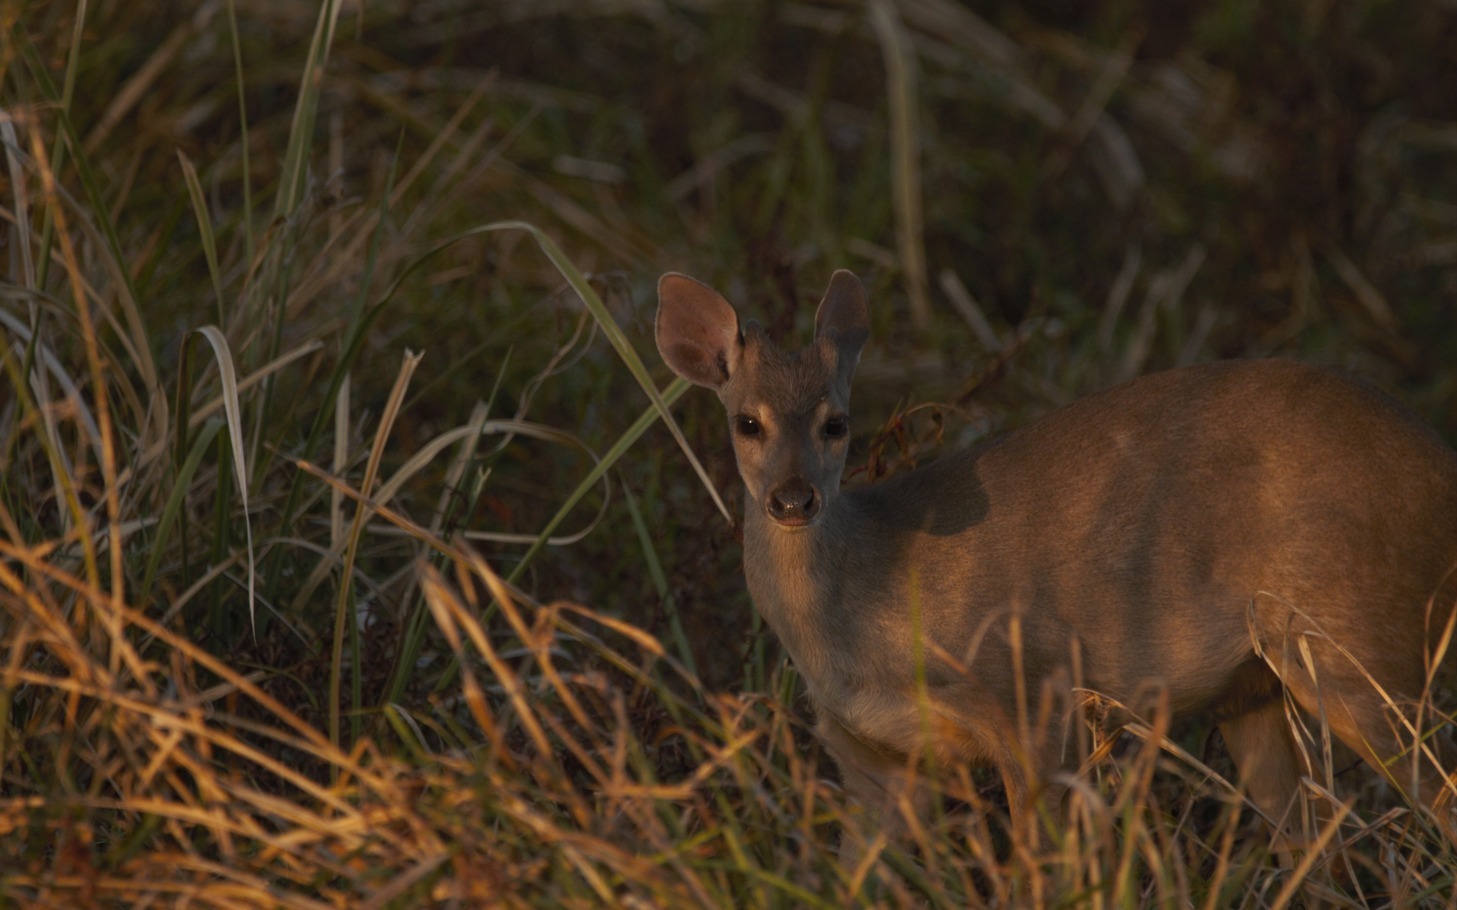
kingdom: Animalia
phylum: Chordata
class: Mammalia
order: Artiodactyla
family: Cervidae
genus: Mazama
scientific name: Mazama gouazoubira
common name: Gray brocket
